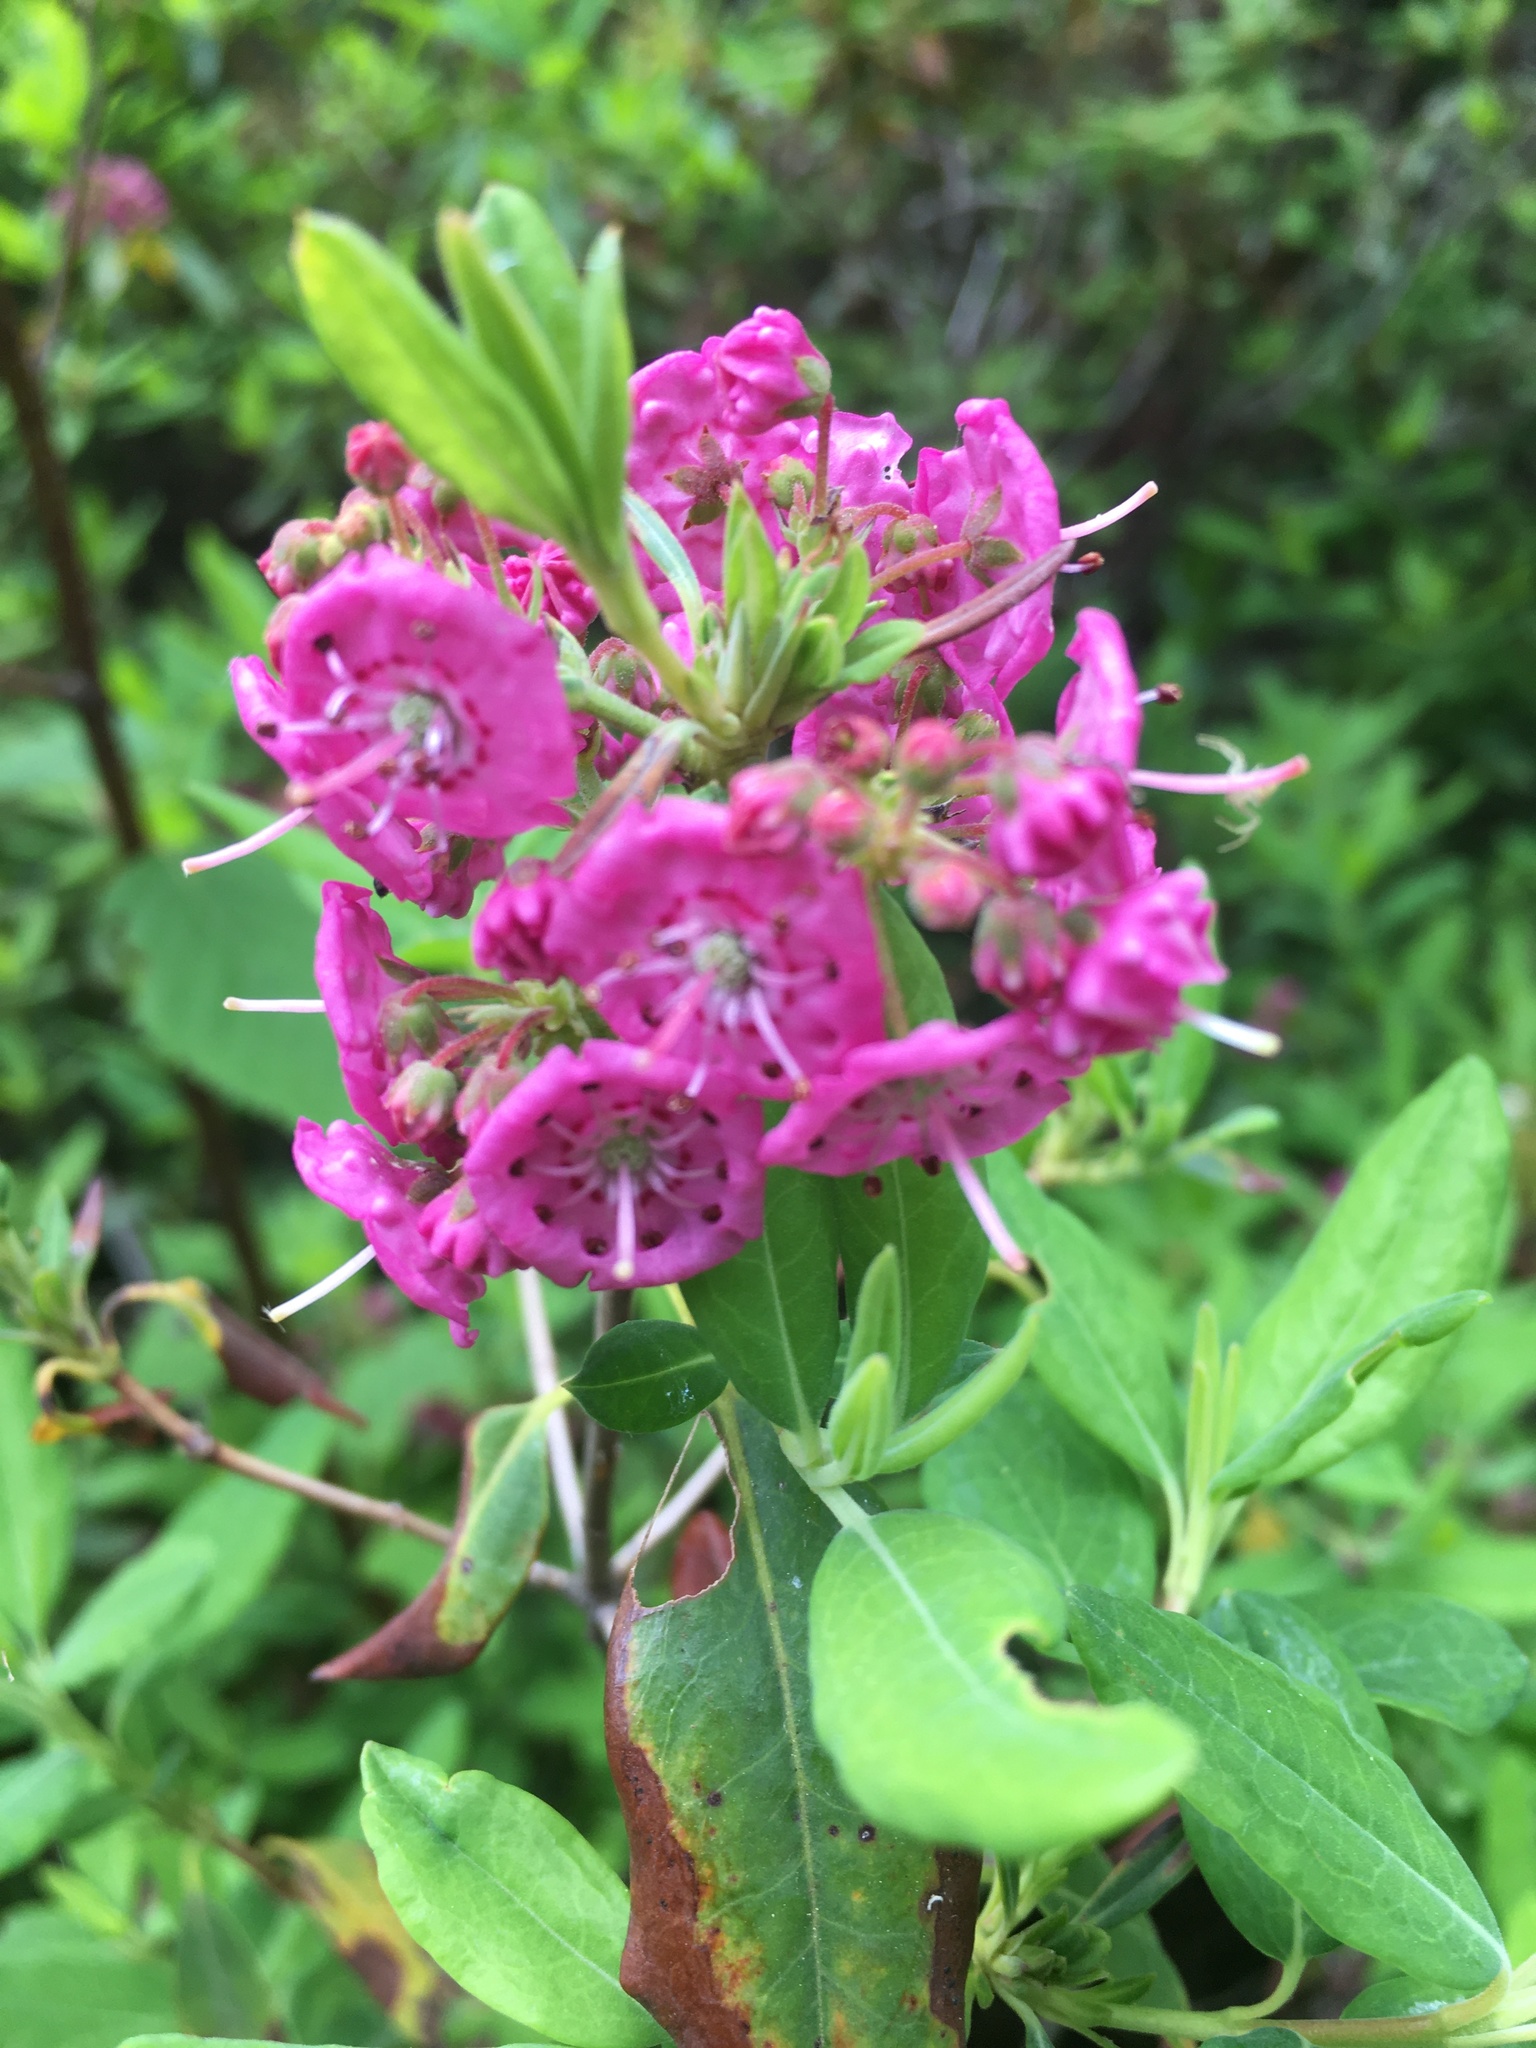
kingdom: Plantae
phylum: Tracheophyta
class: Magnoliopsida
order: Ericales
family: Ericaceae
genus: Kalmia
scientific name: Kalmia angustifolia
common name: Sheep-laurel
